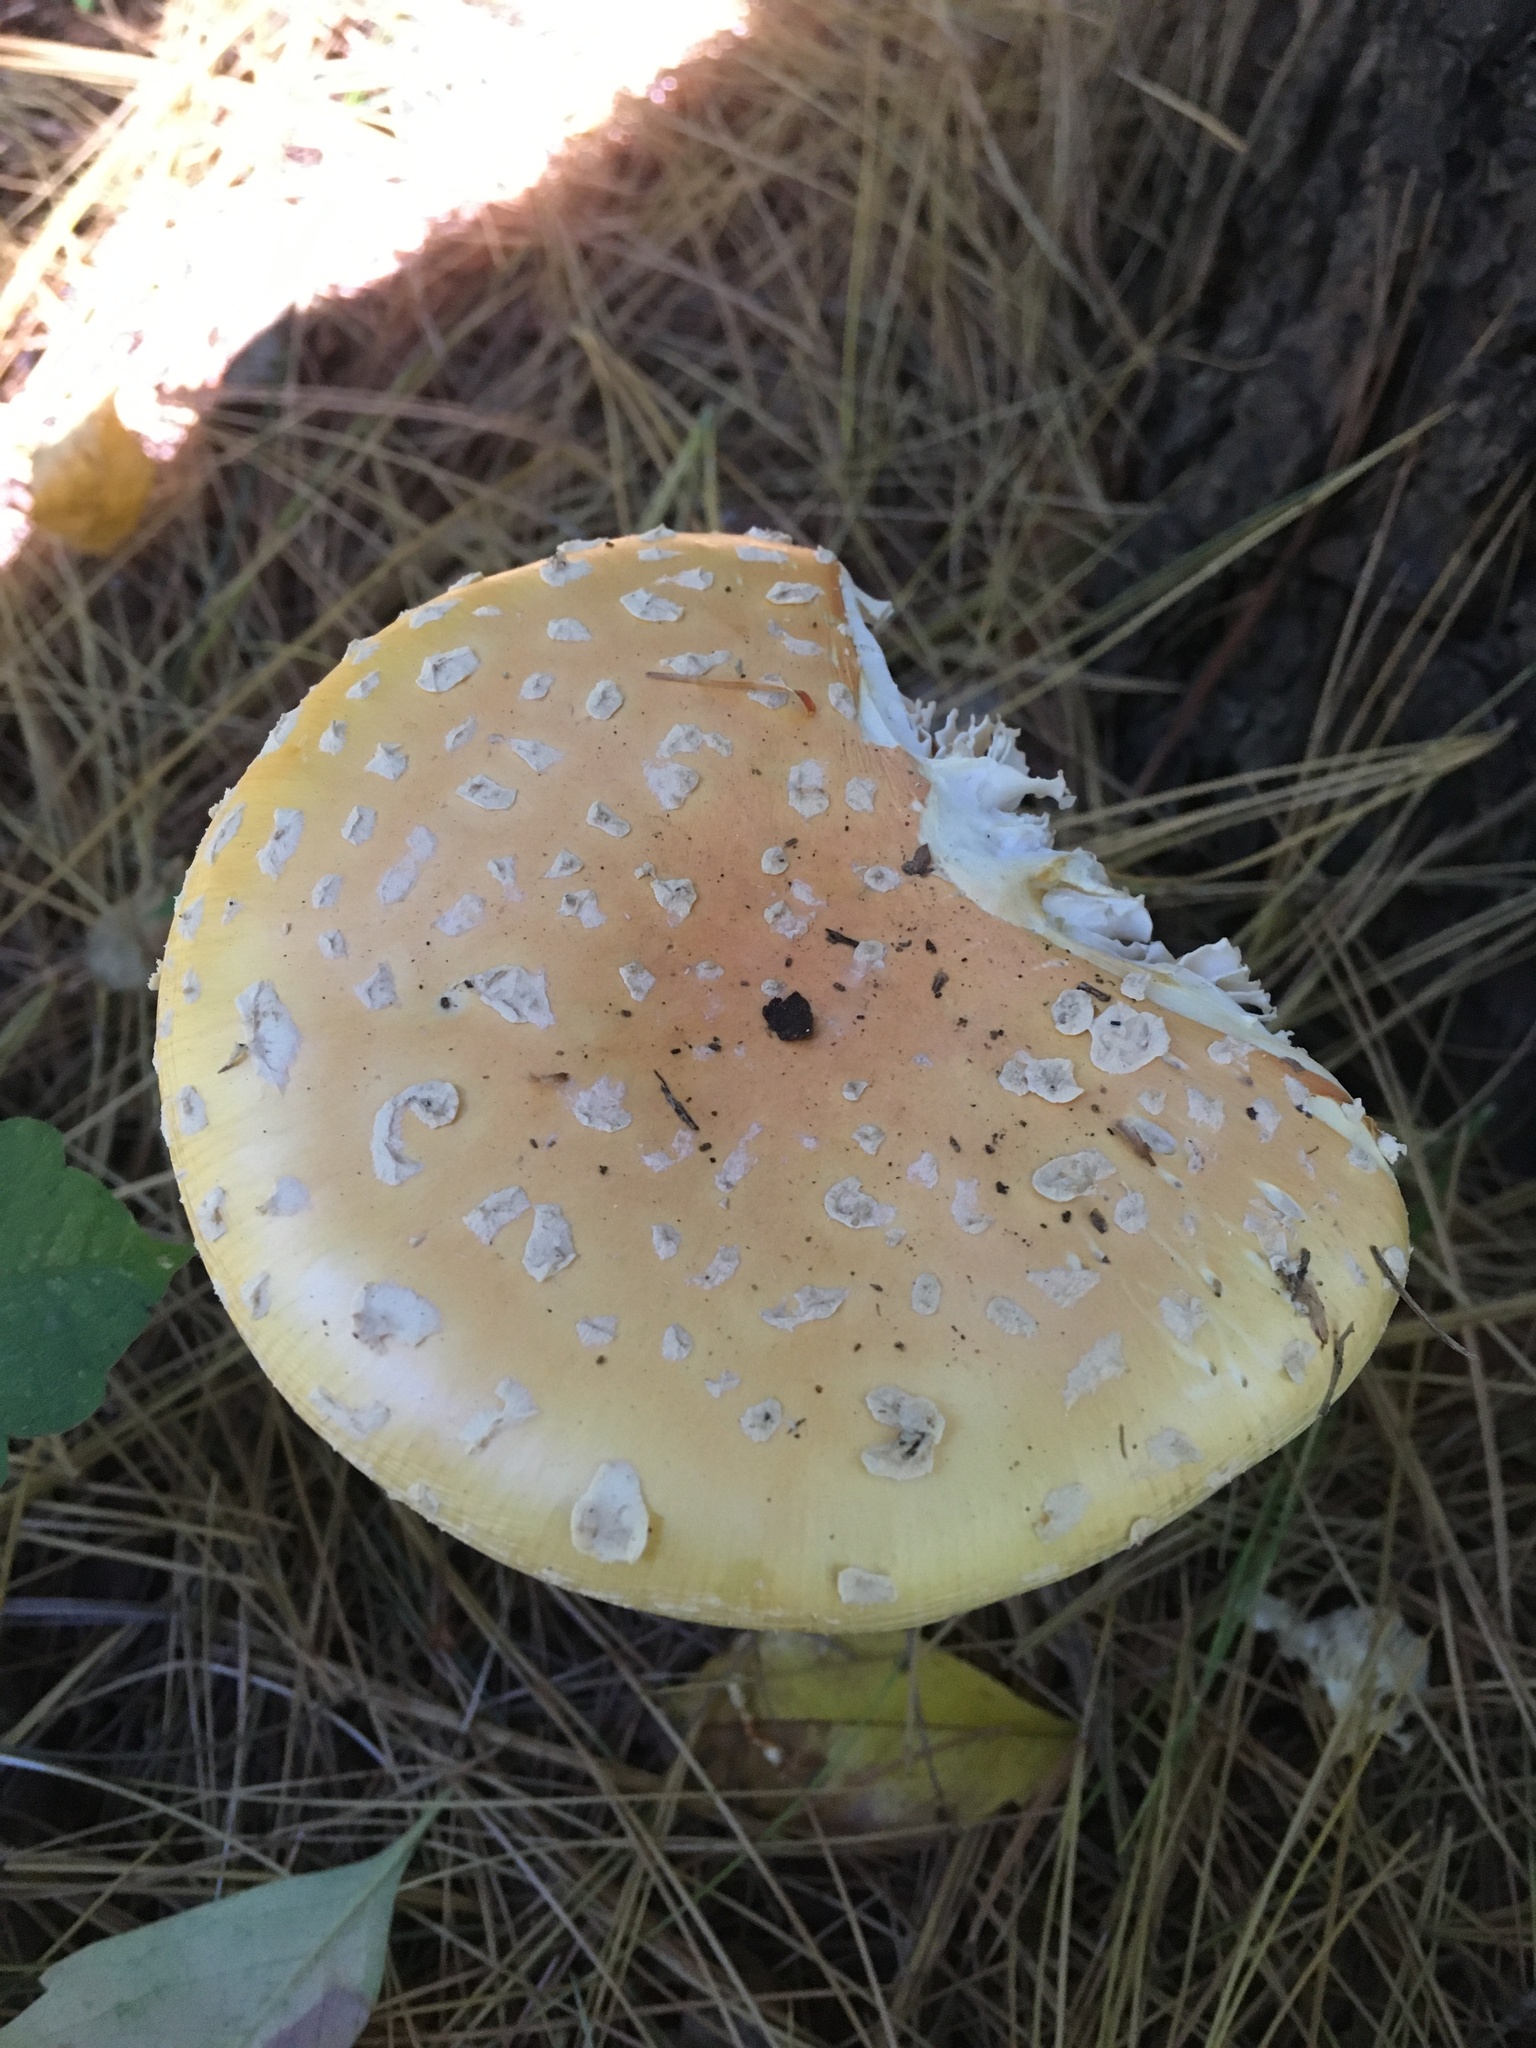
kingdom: Fungi
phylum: Basidiomycota
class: Agaricomycetes
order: Agaricales
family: Amanitaceae
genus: Amanita
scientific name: Amanita muscaria
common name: Fly agaric
